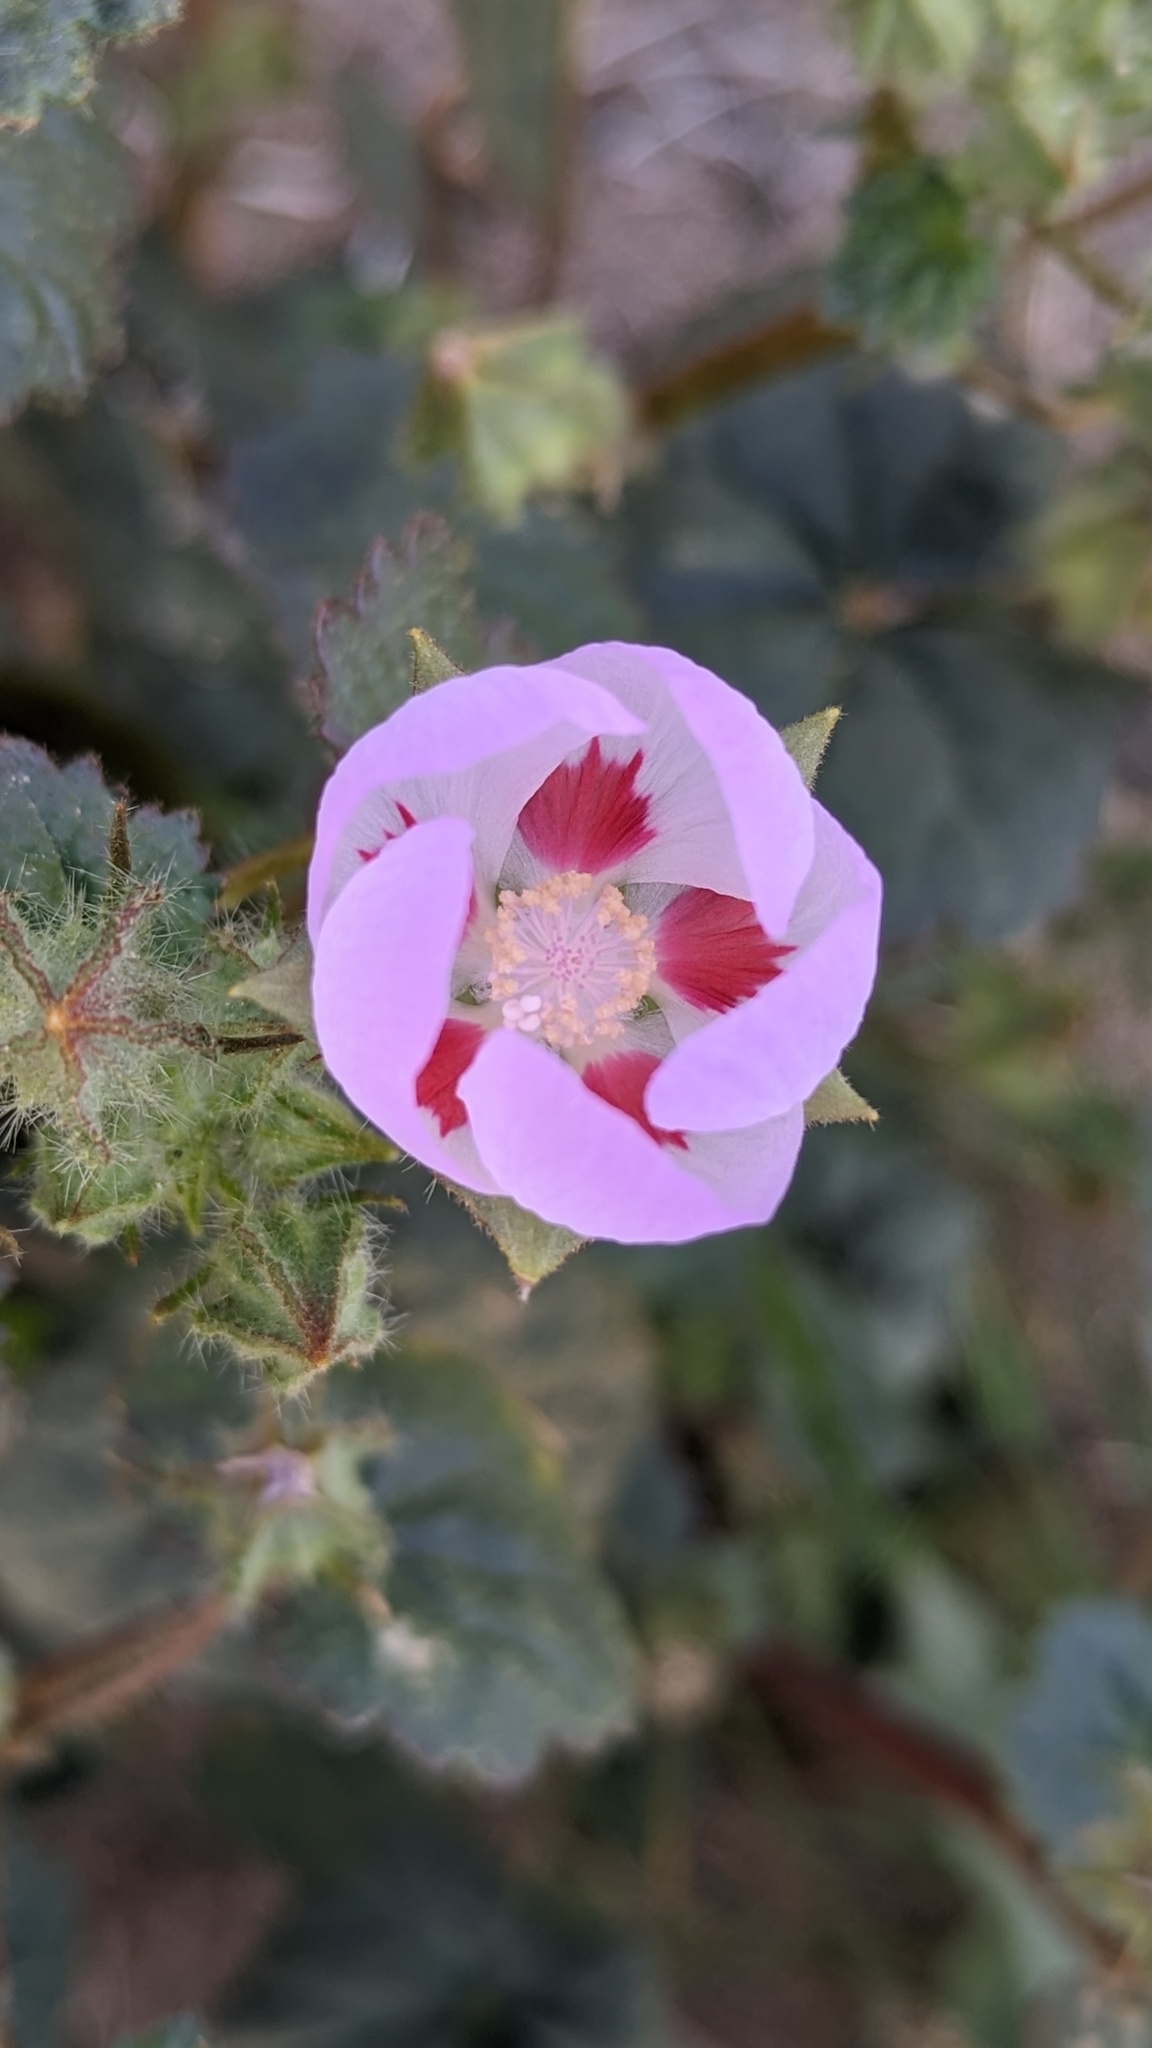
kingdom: Plantae
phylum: Tracheophyta
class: Magnoliopsida
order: Malvales
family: Malvaceae
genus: Eremalche
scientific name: Eremalche rotundifolia
